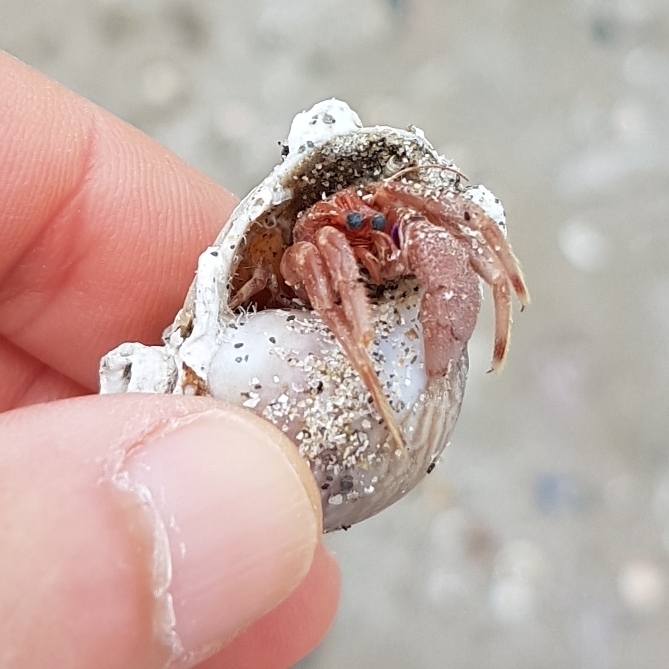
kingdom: Animalia
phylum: Mollusca
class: Gastropoda
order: Neogastropoda
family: Nassariidae
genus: Tritia
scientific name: Tritia mutabilis
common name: Mutable nassa
